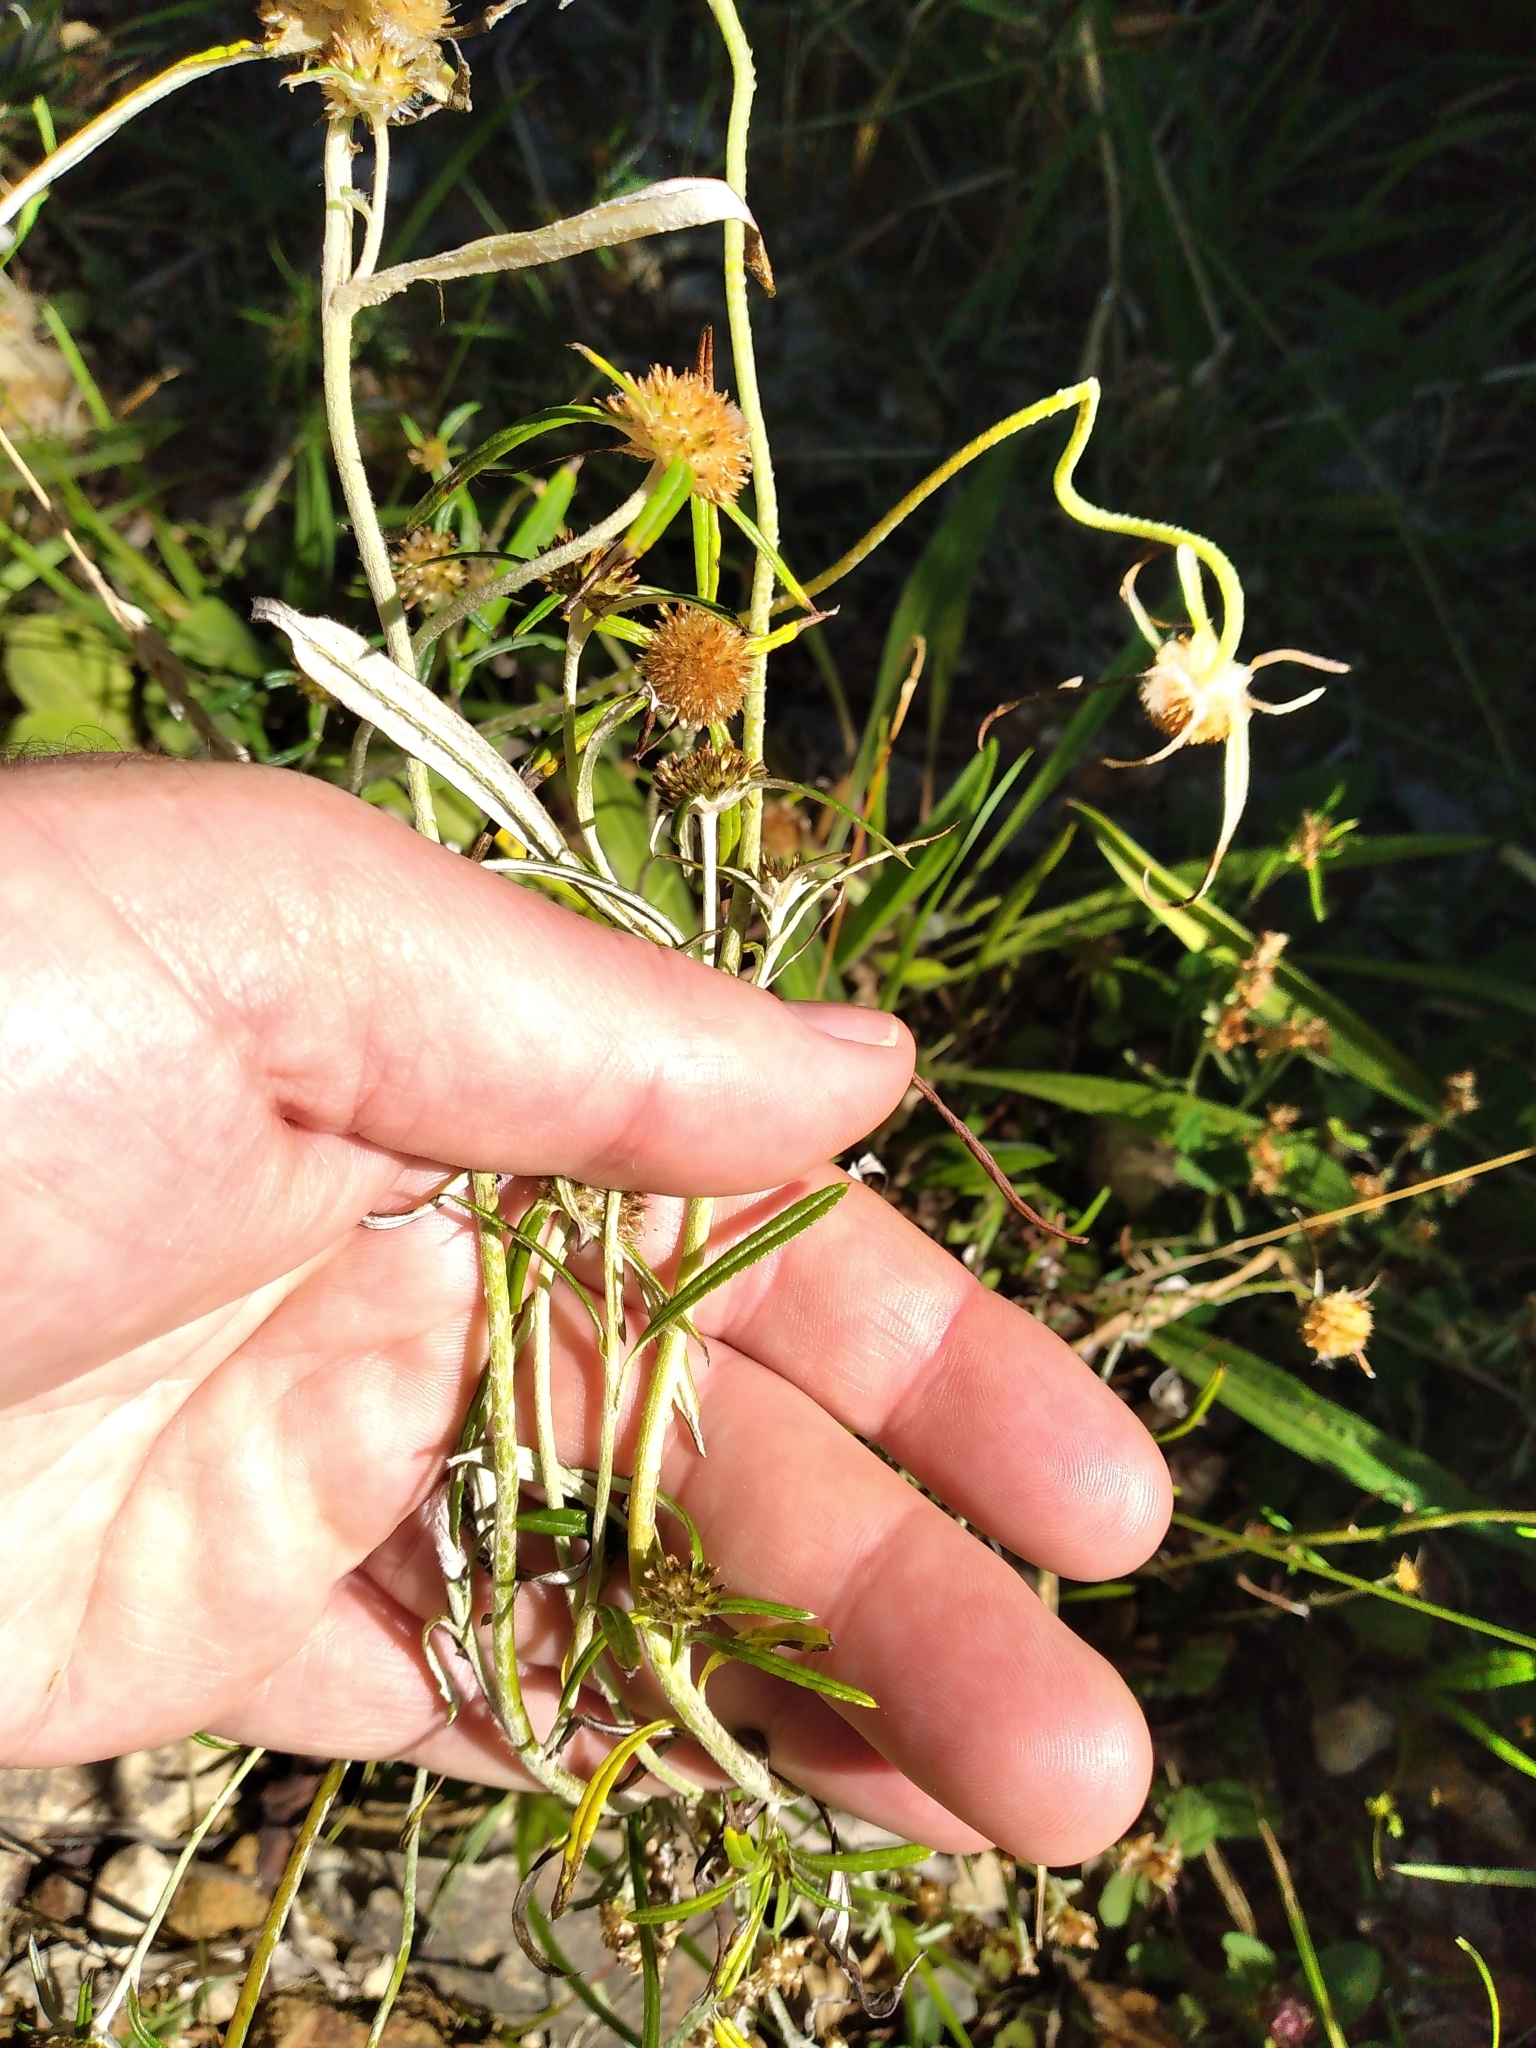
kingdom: Plantae
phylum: Tracheophyta
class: Magnoliopsida
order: Asterales
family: Asteraceae
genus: Euchiton
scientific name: Euchiton sphaericus
